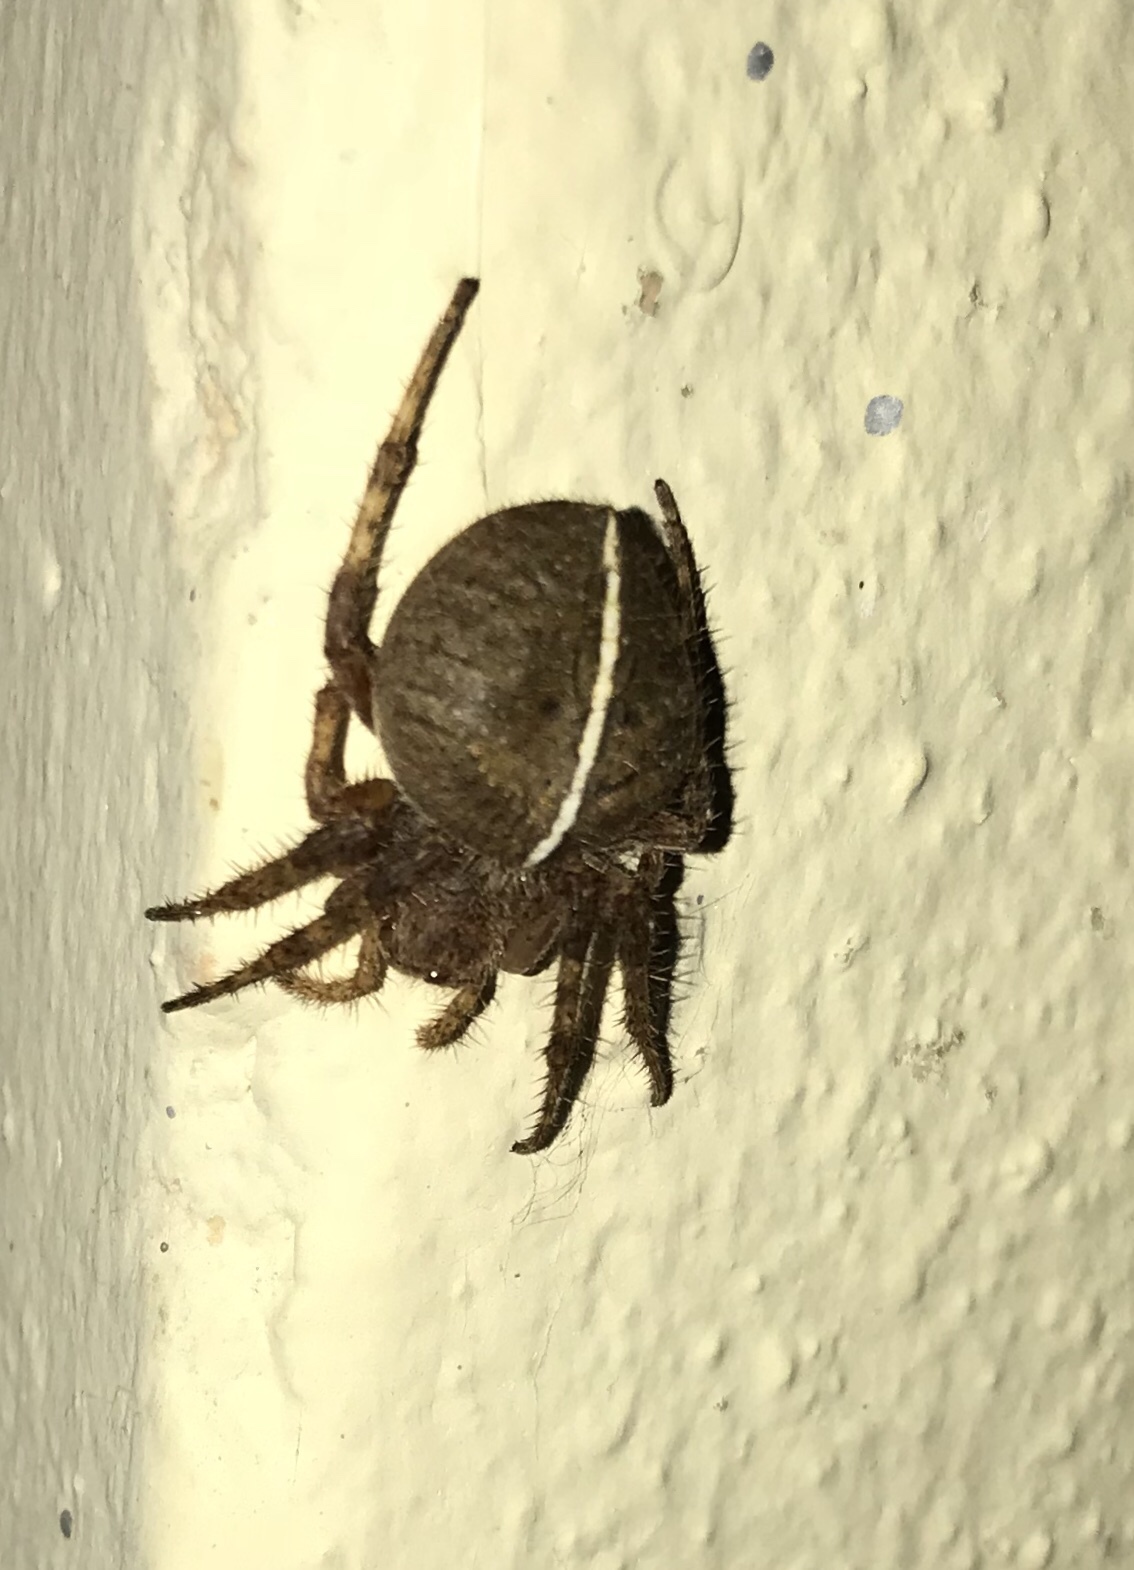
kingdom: Animalia
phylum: Arthropoda
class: Arachnida
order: Araneae
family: Araneidae
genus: Eriophora
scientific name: Eriophora edax
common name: Orb weavers
